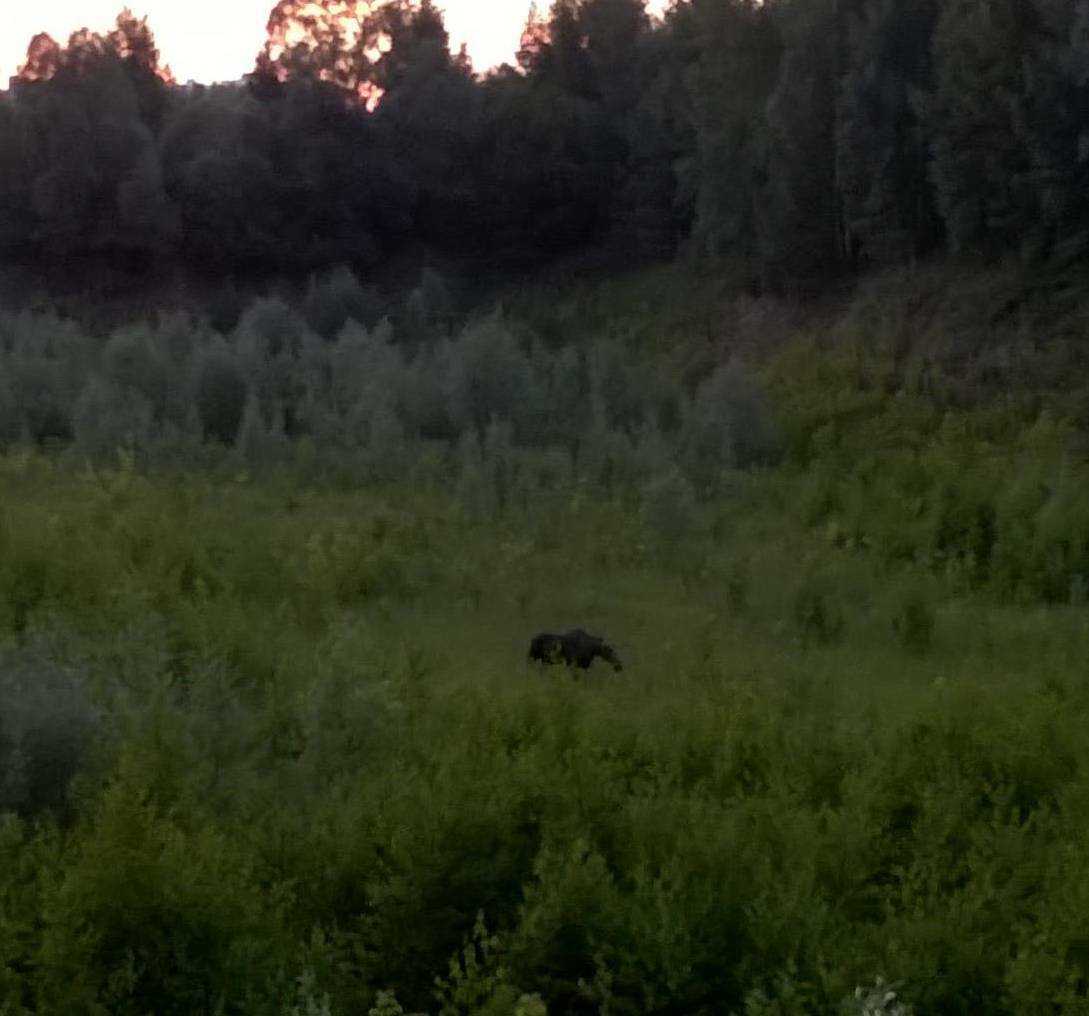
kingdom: Animalia
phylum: Chordata
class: Mammalia
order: Artiodactyla
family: Cervidae
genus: Alces
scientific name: Alces alces
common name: Moose
